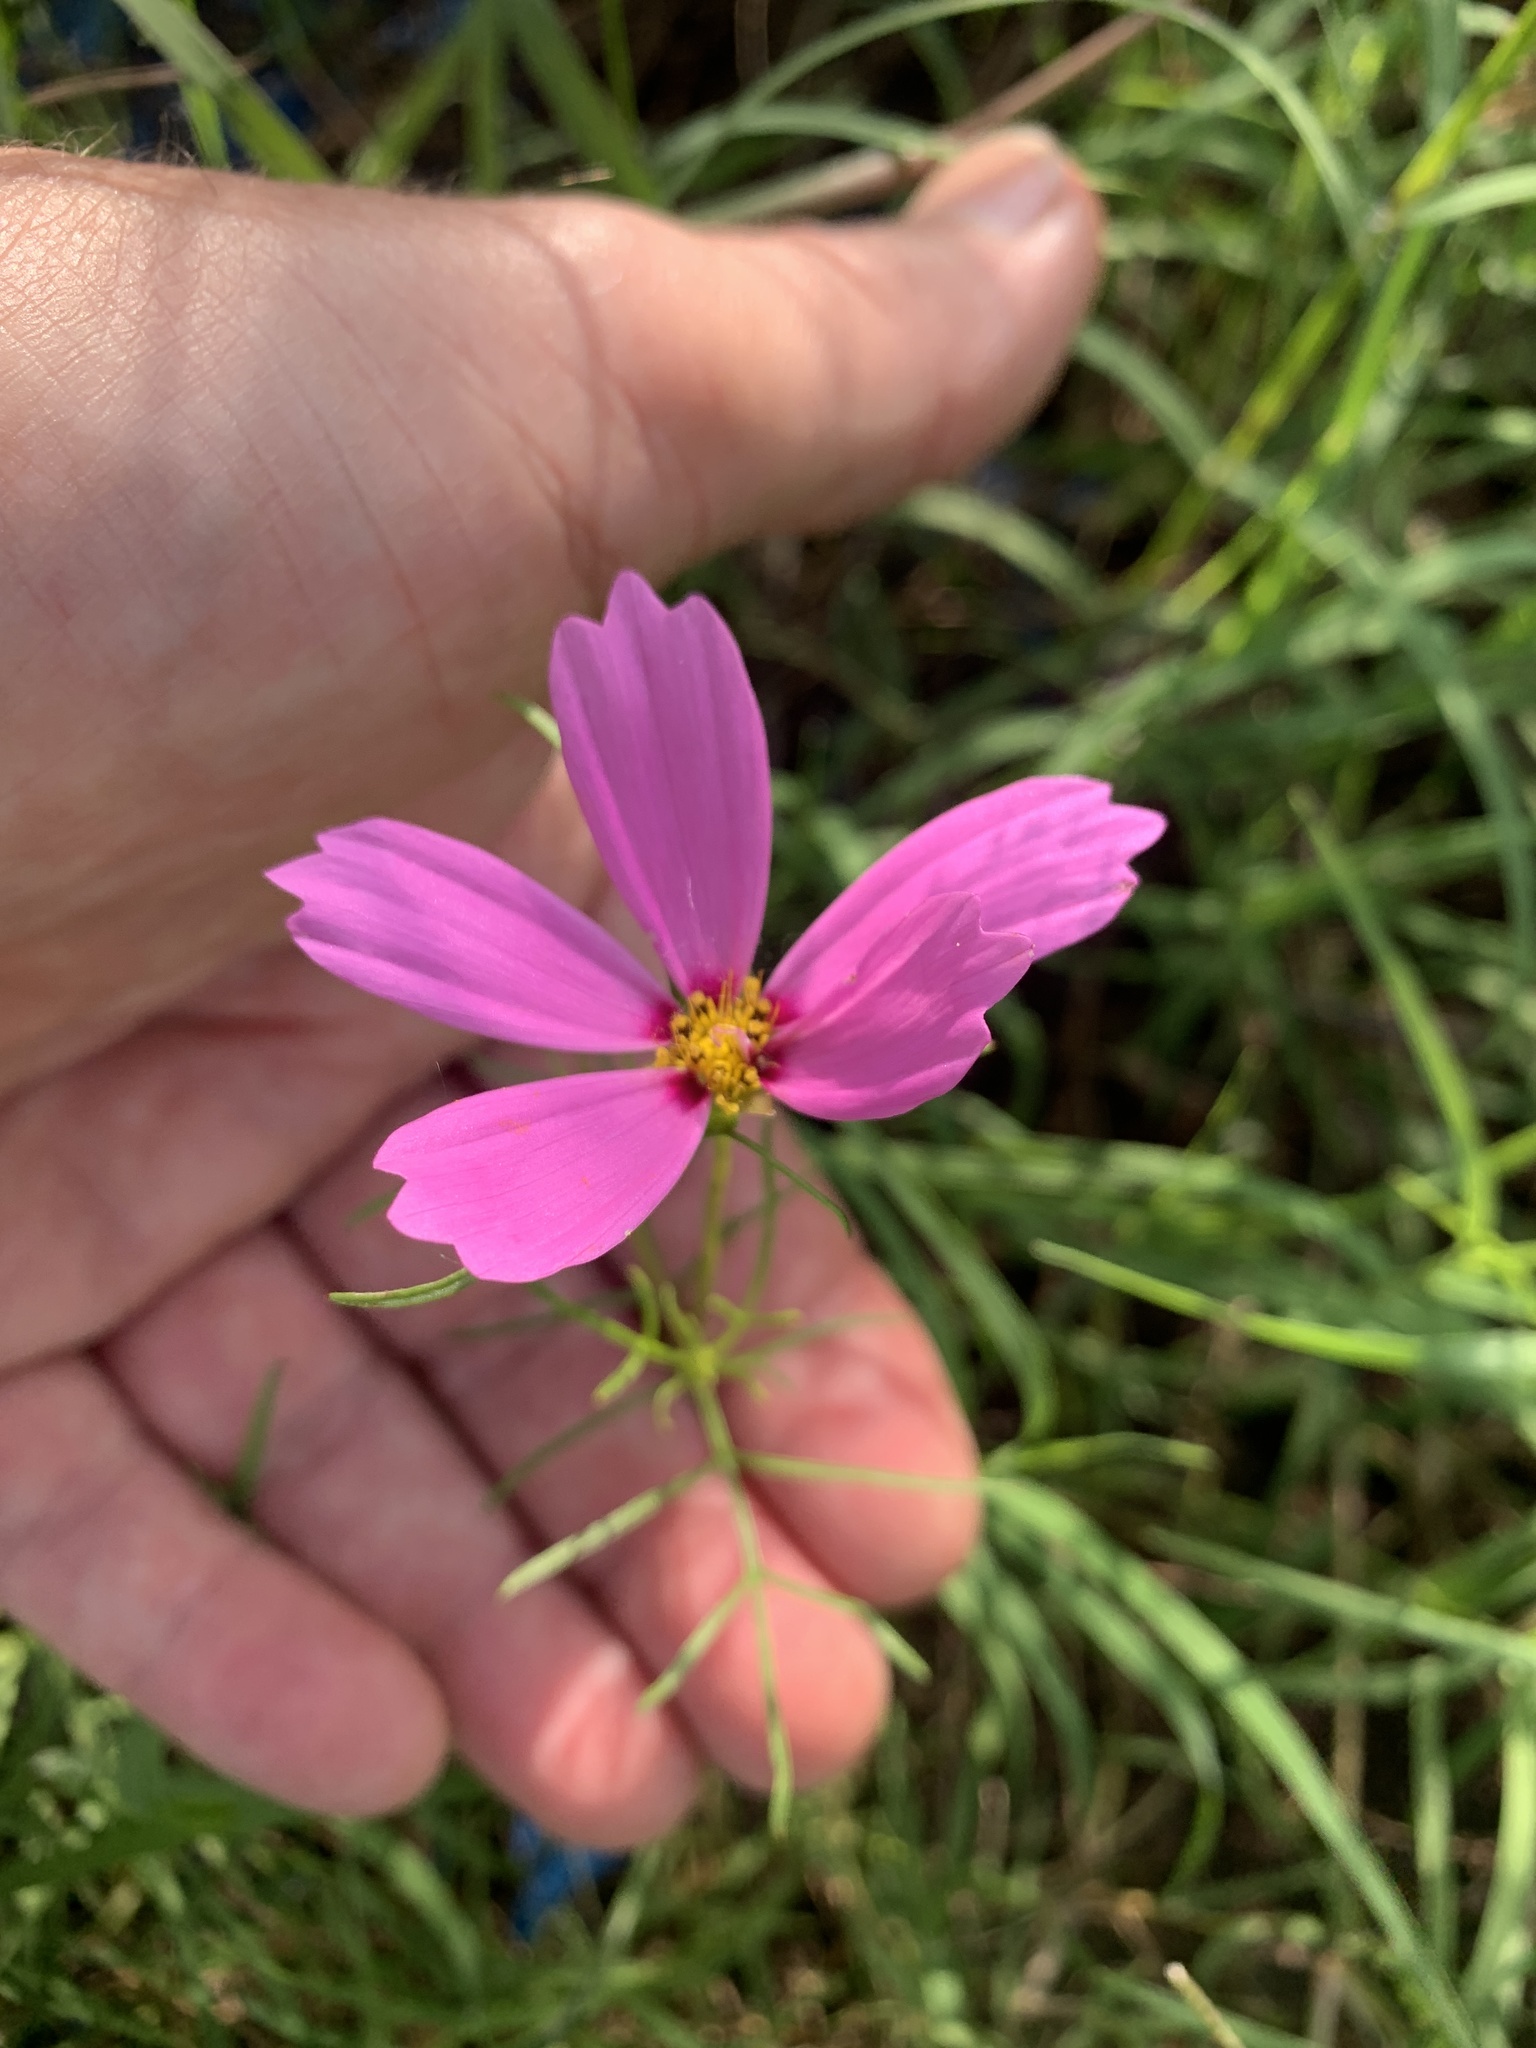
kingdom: Plantae
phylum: Tracheophyta
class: Magnoliopsida
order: Asterales
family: Asteraceae
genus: Cosmos
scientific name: Cosmos bipinnatus
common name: Garden cosmos
